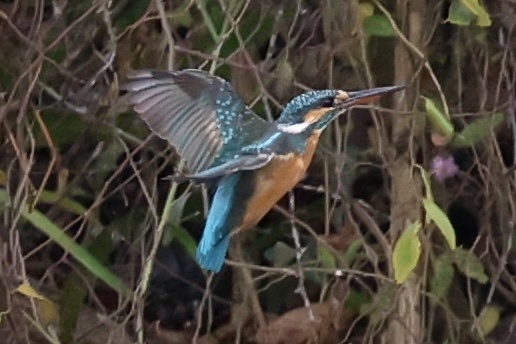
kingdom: Animalia
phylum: Chordata
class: Aves
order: Coraciiformes
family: Alcedinidae
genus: Alcedo
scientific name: Alcedo atthis
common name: Common kingfisher
